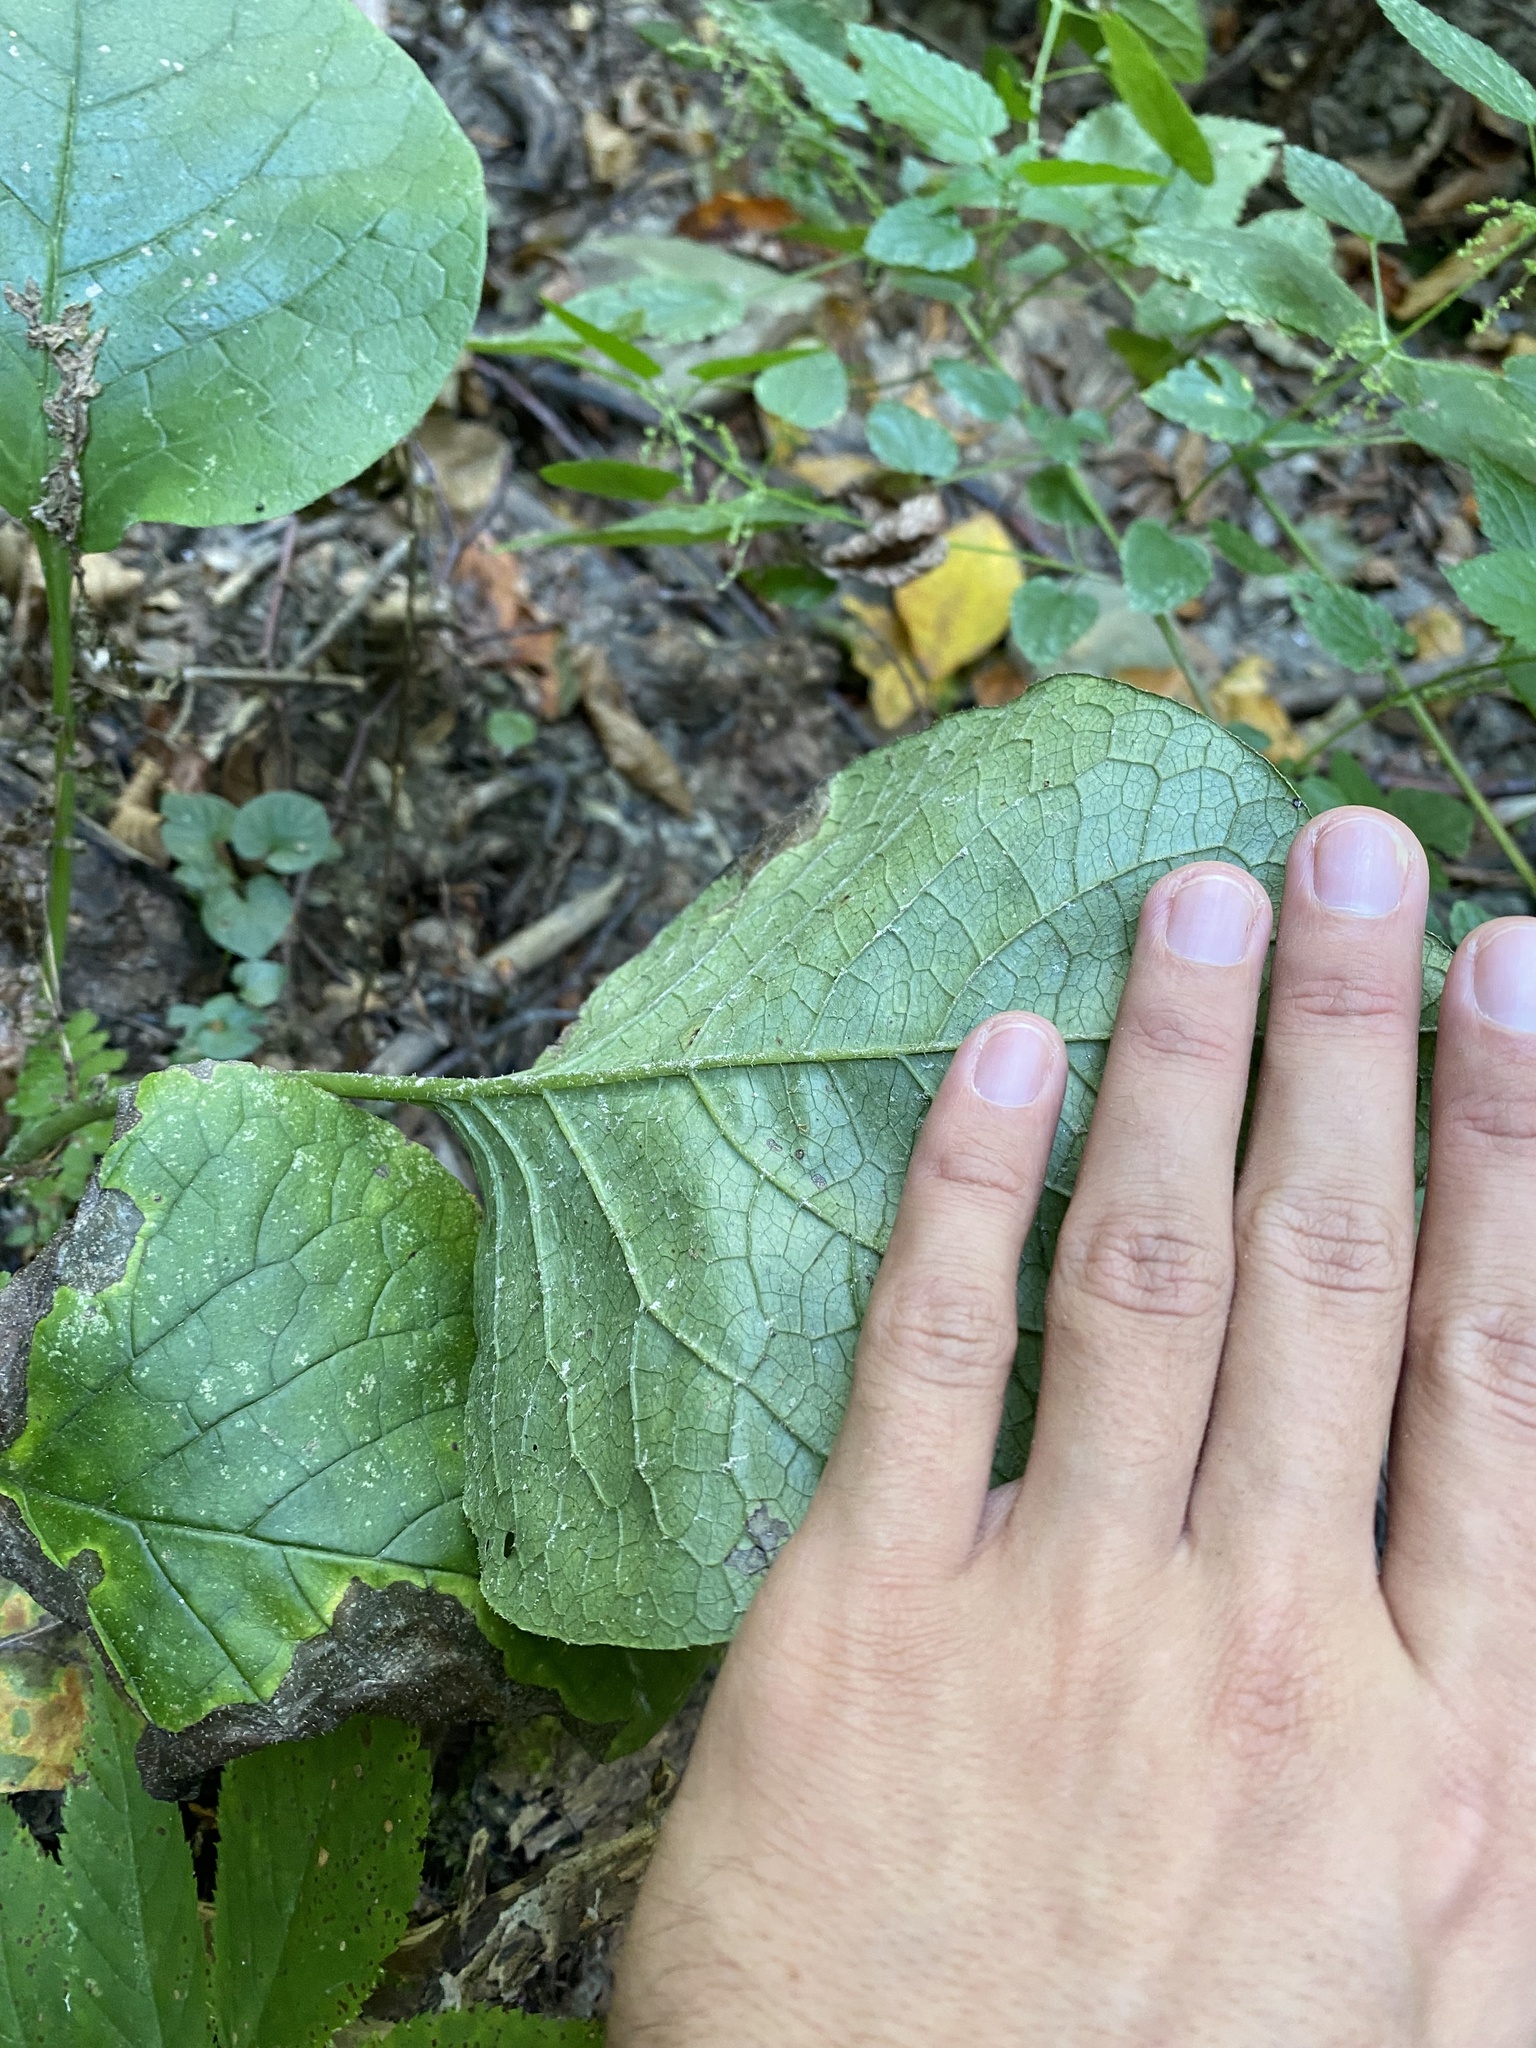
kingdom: Plantae
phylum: Tracheophyta
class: Magnoliopsida
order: Boraginales
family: Boraginaceae
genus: Trachystemon
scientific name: Trachystemon orientale
